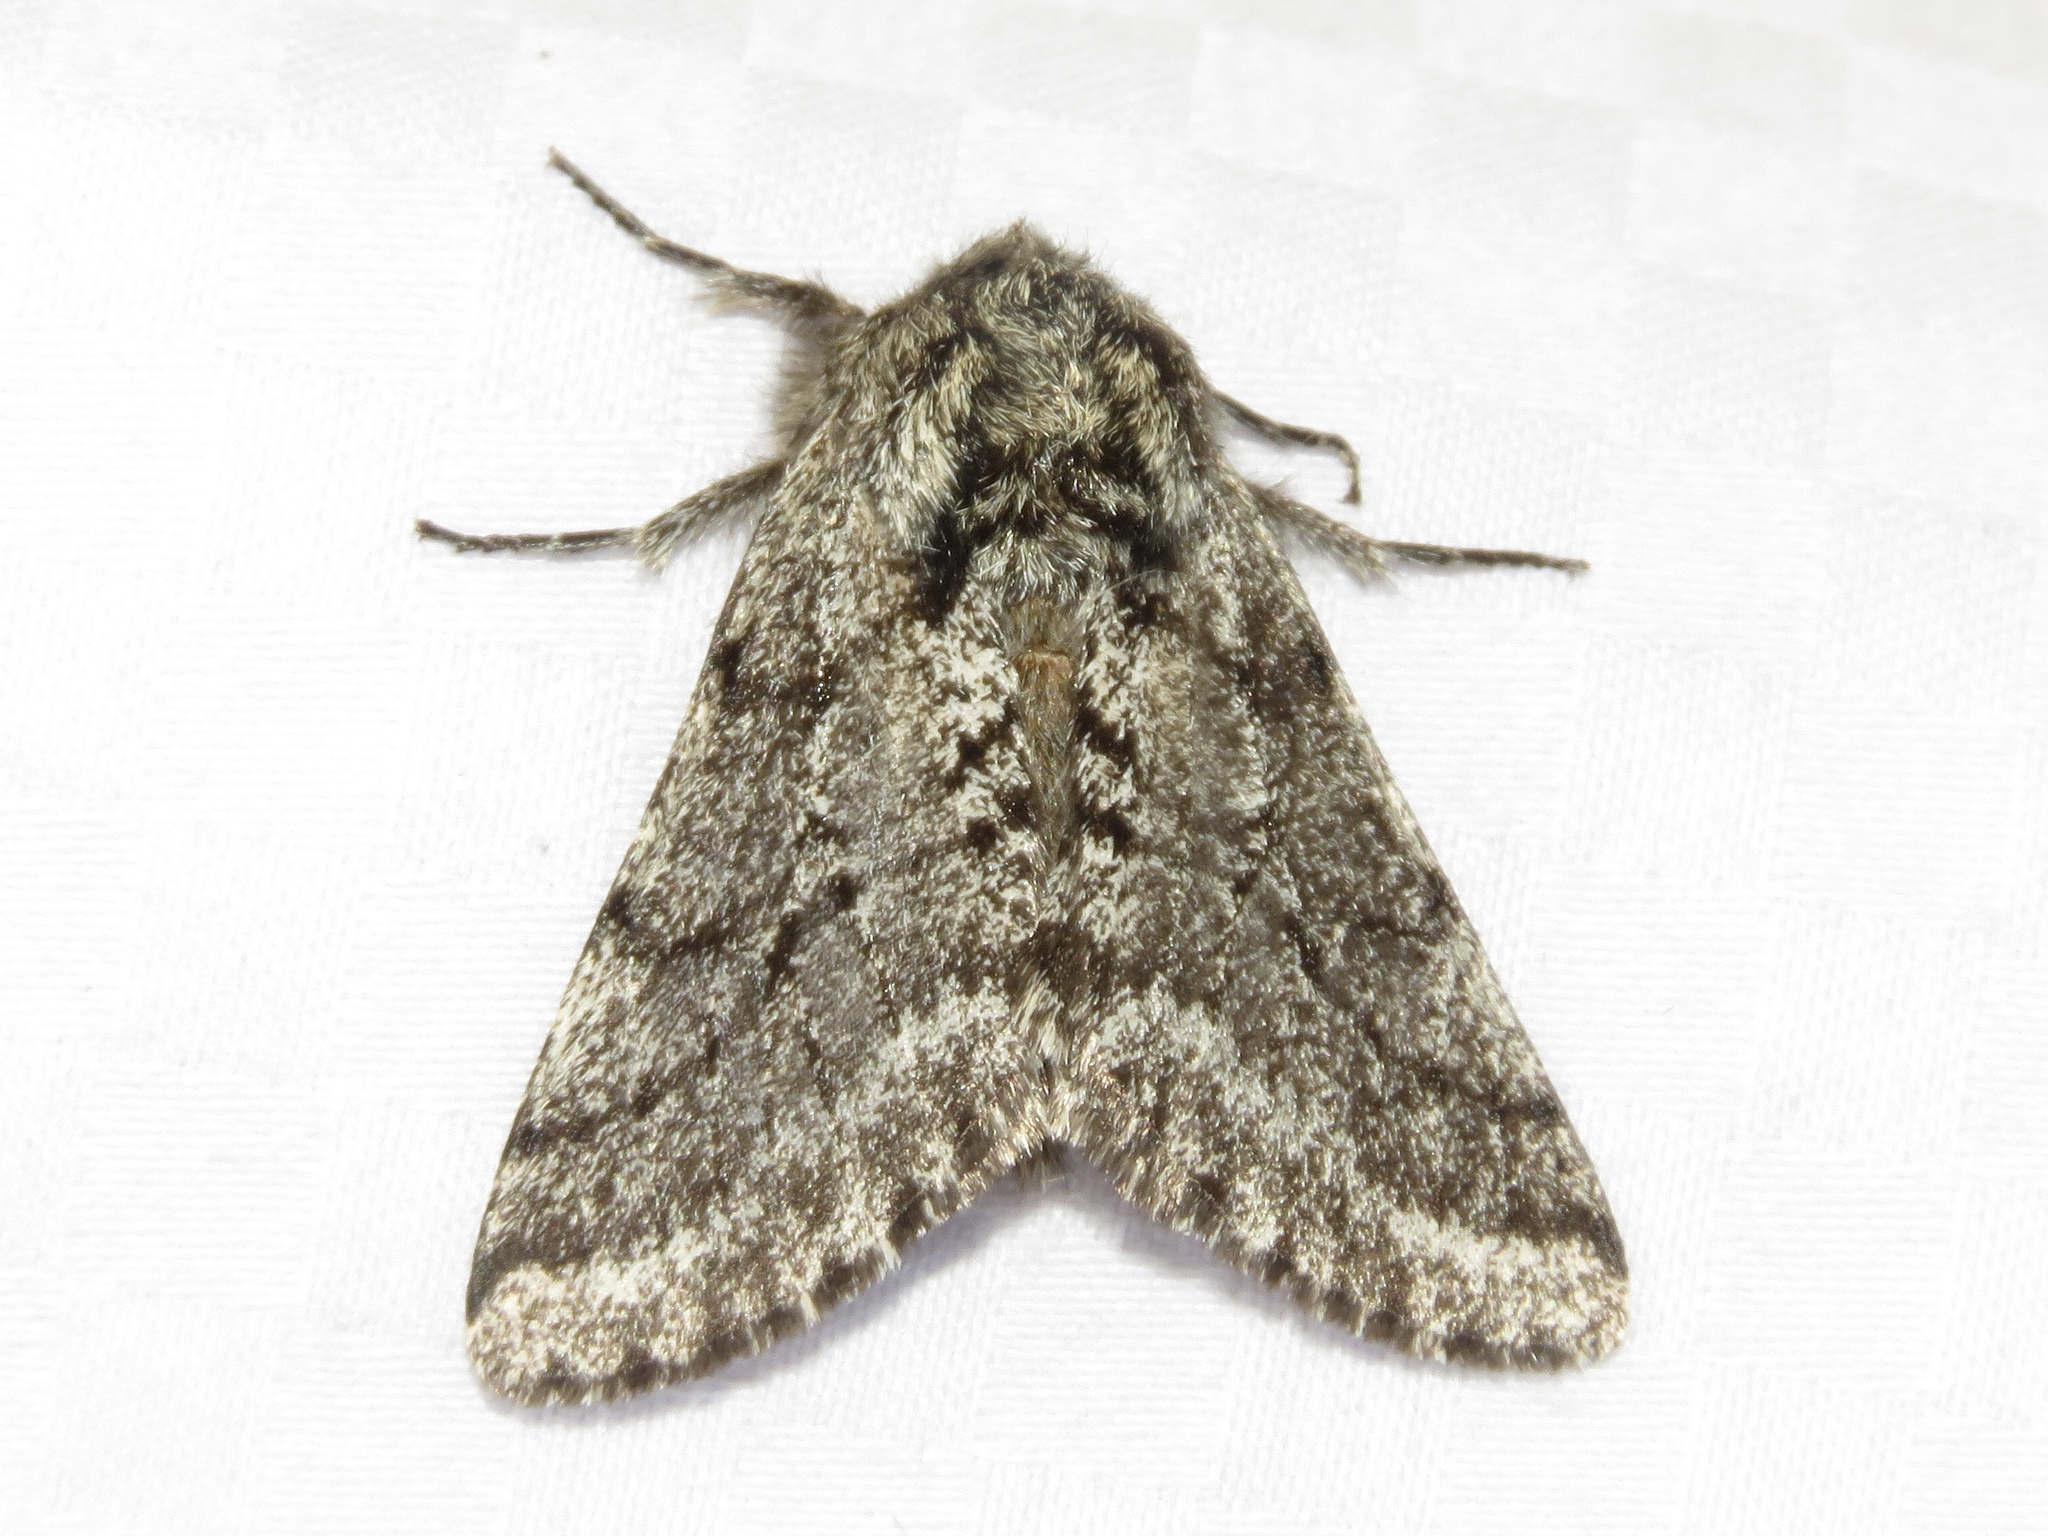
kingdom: Animalia
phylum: Arthropoda
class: Insecta
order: Lepidoptera
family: Geometridae
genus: Lycia
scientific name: Lycia ursaria
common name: Stout spanworm
